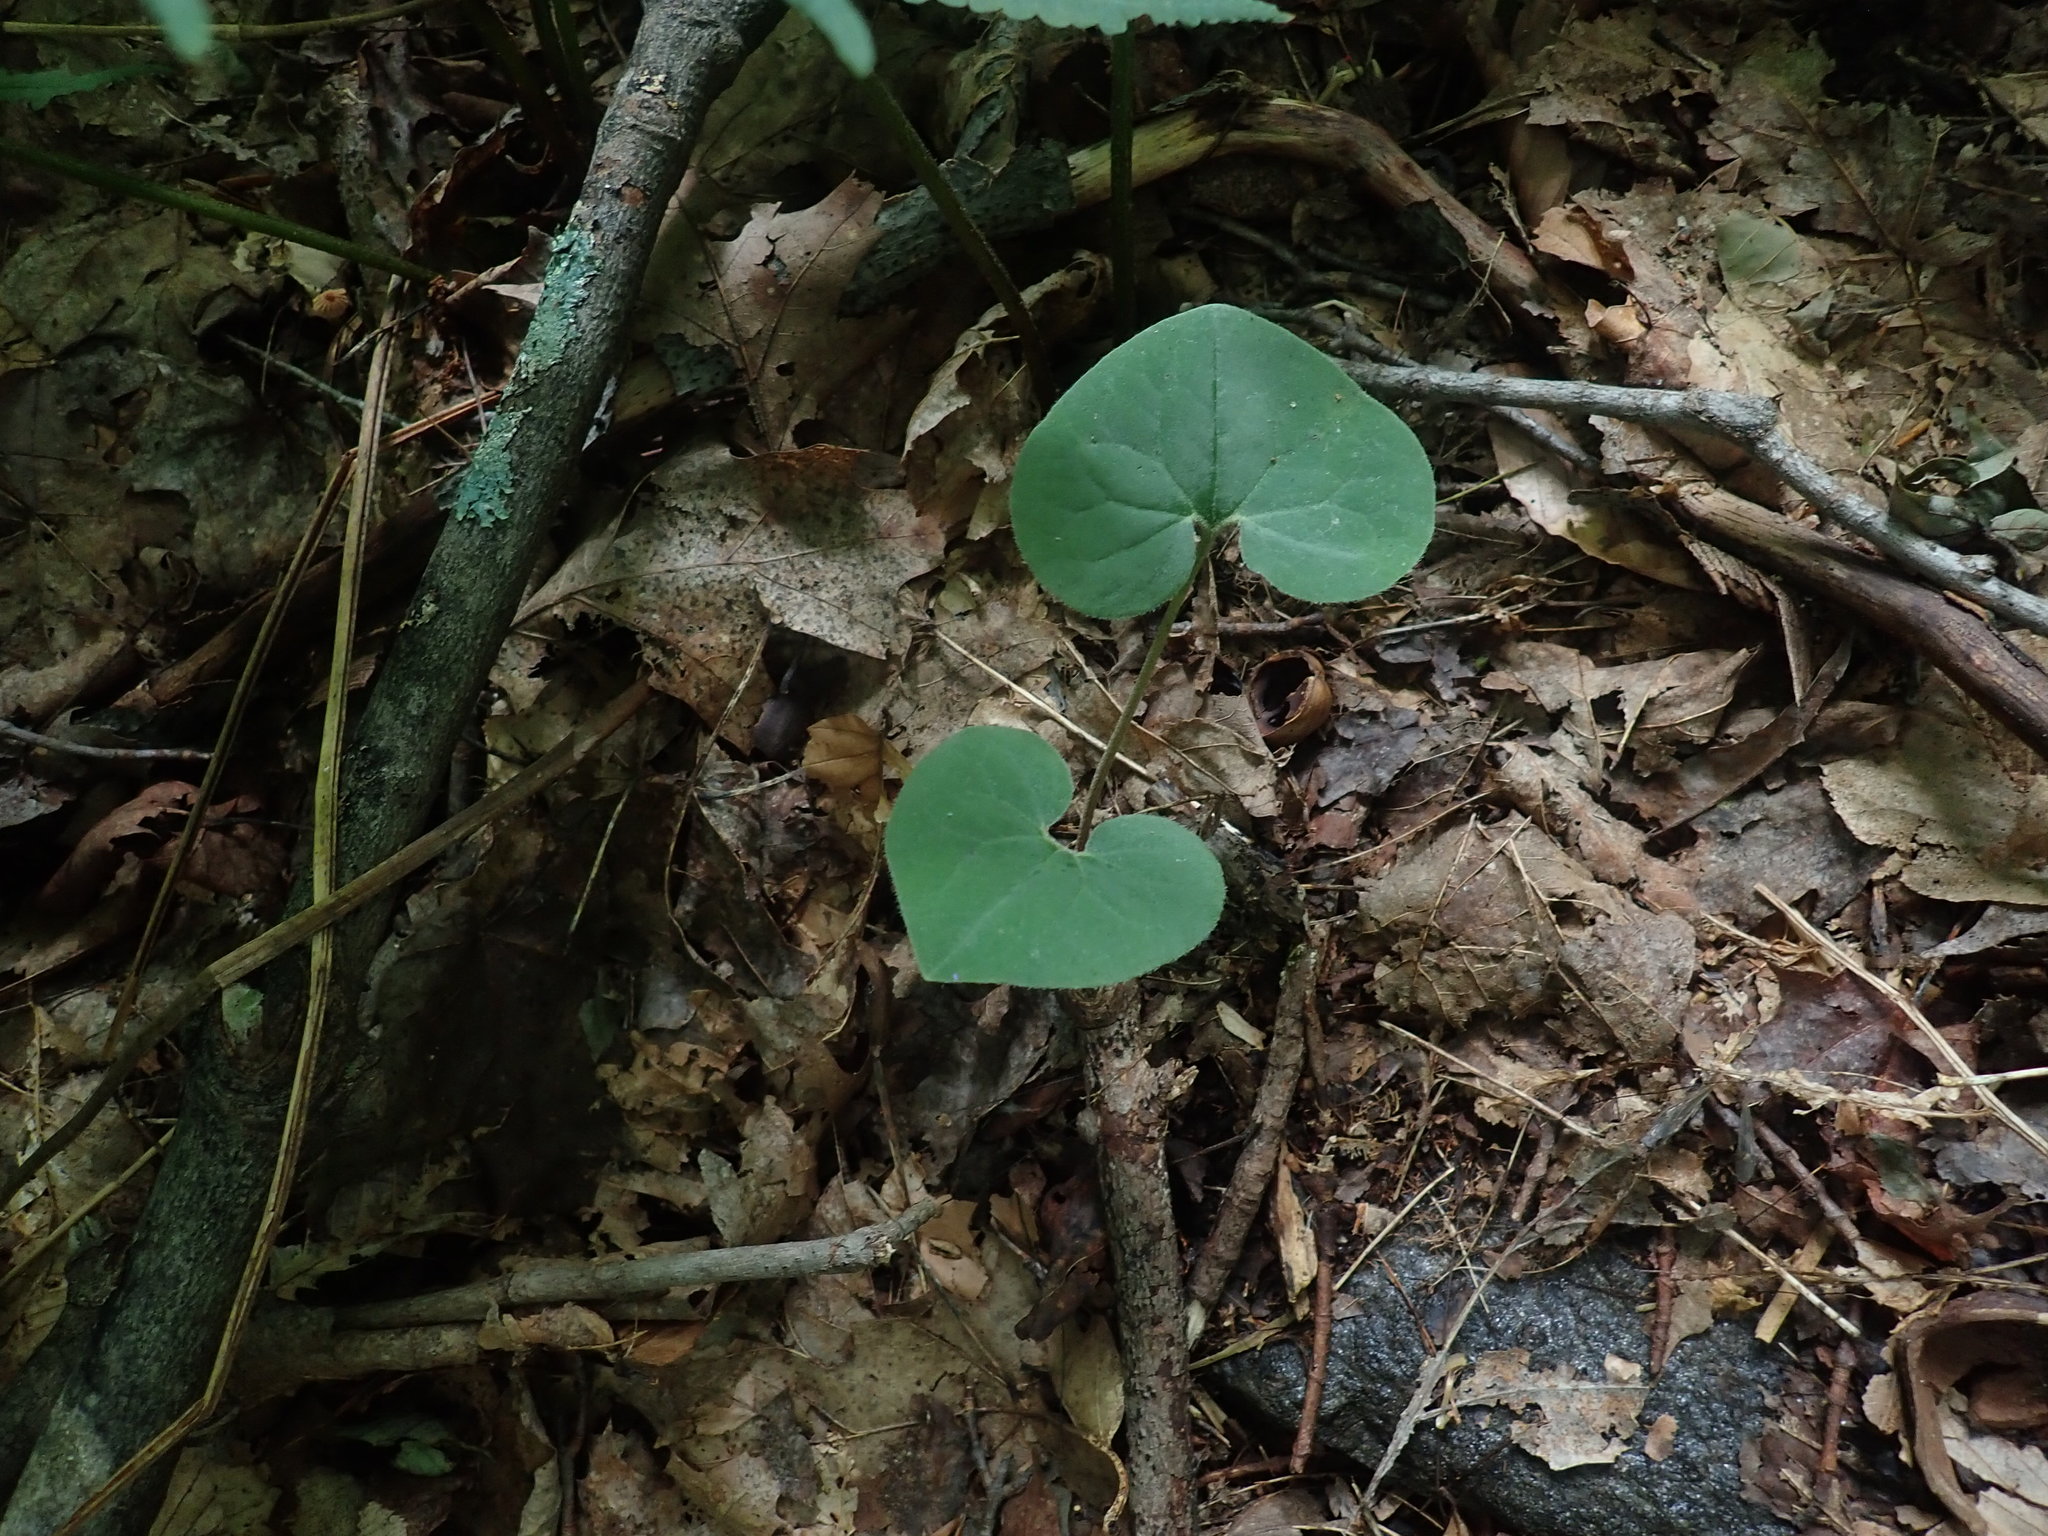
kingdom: Plantae
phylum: Tracheophyta
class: Magnoliopsida
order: Piperales
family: Aristolochiaceae
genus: Asarum
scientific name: Asarum canadense
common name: Wild ginger
